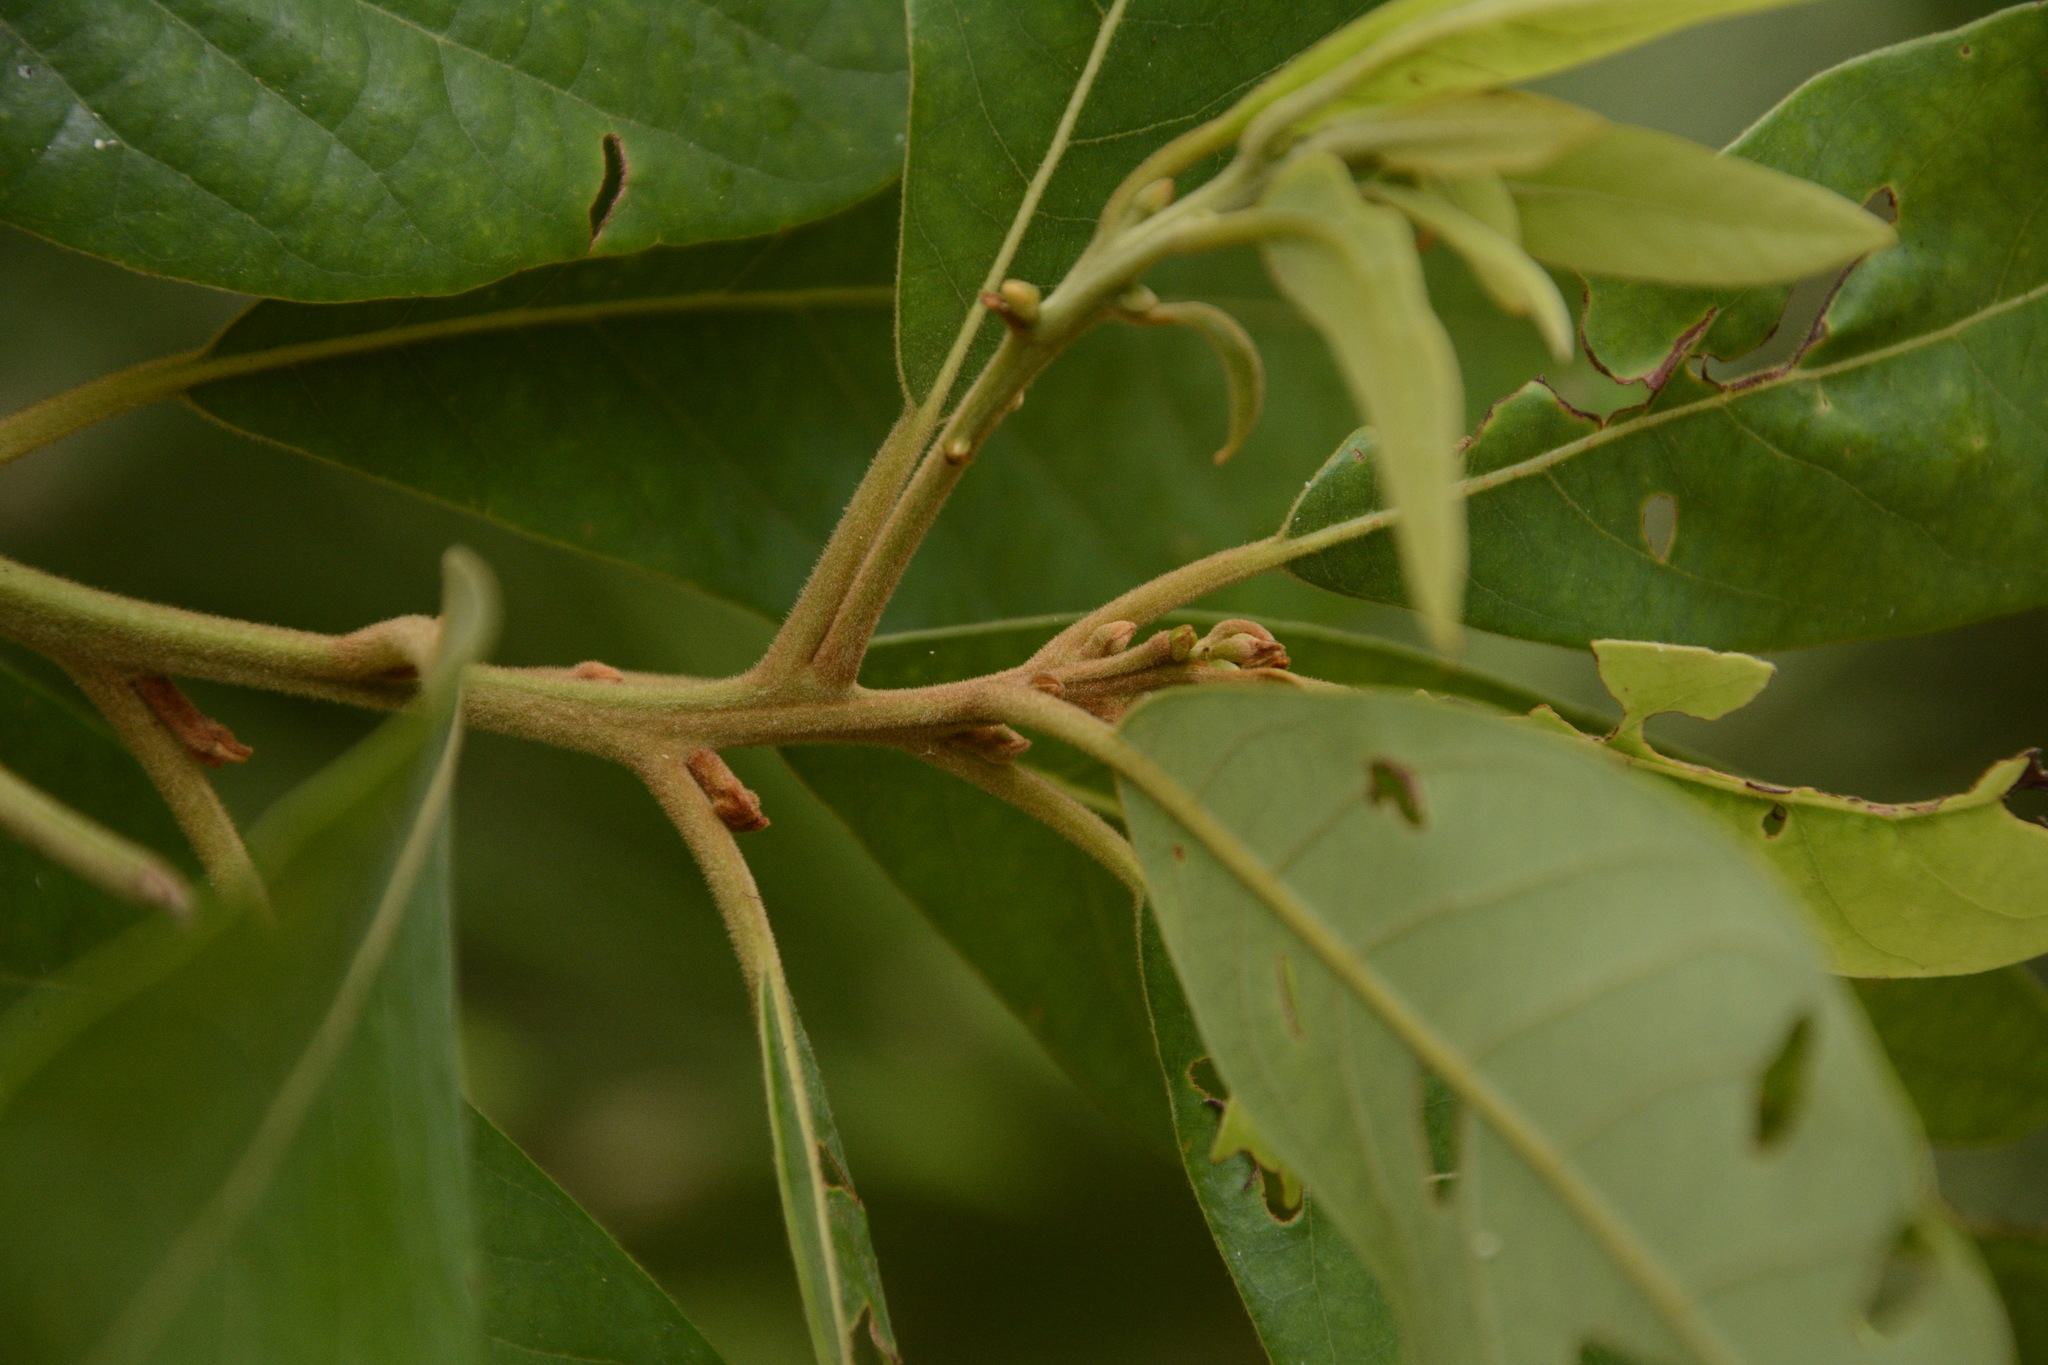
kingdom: Plantae
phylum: Tracheophyta
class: Magnoliopsida
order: Laurales
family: Lauraceae
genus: Persea
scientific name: Persea palustris
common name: Swampbay
